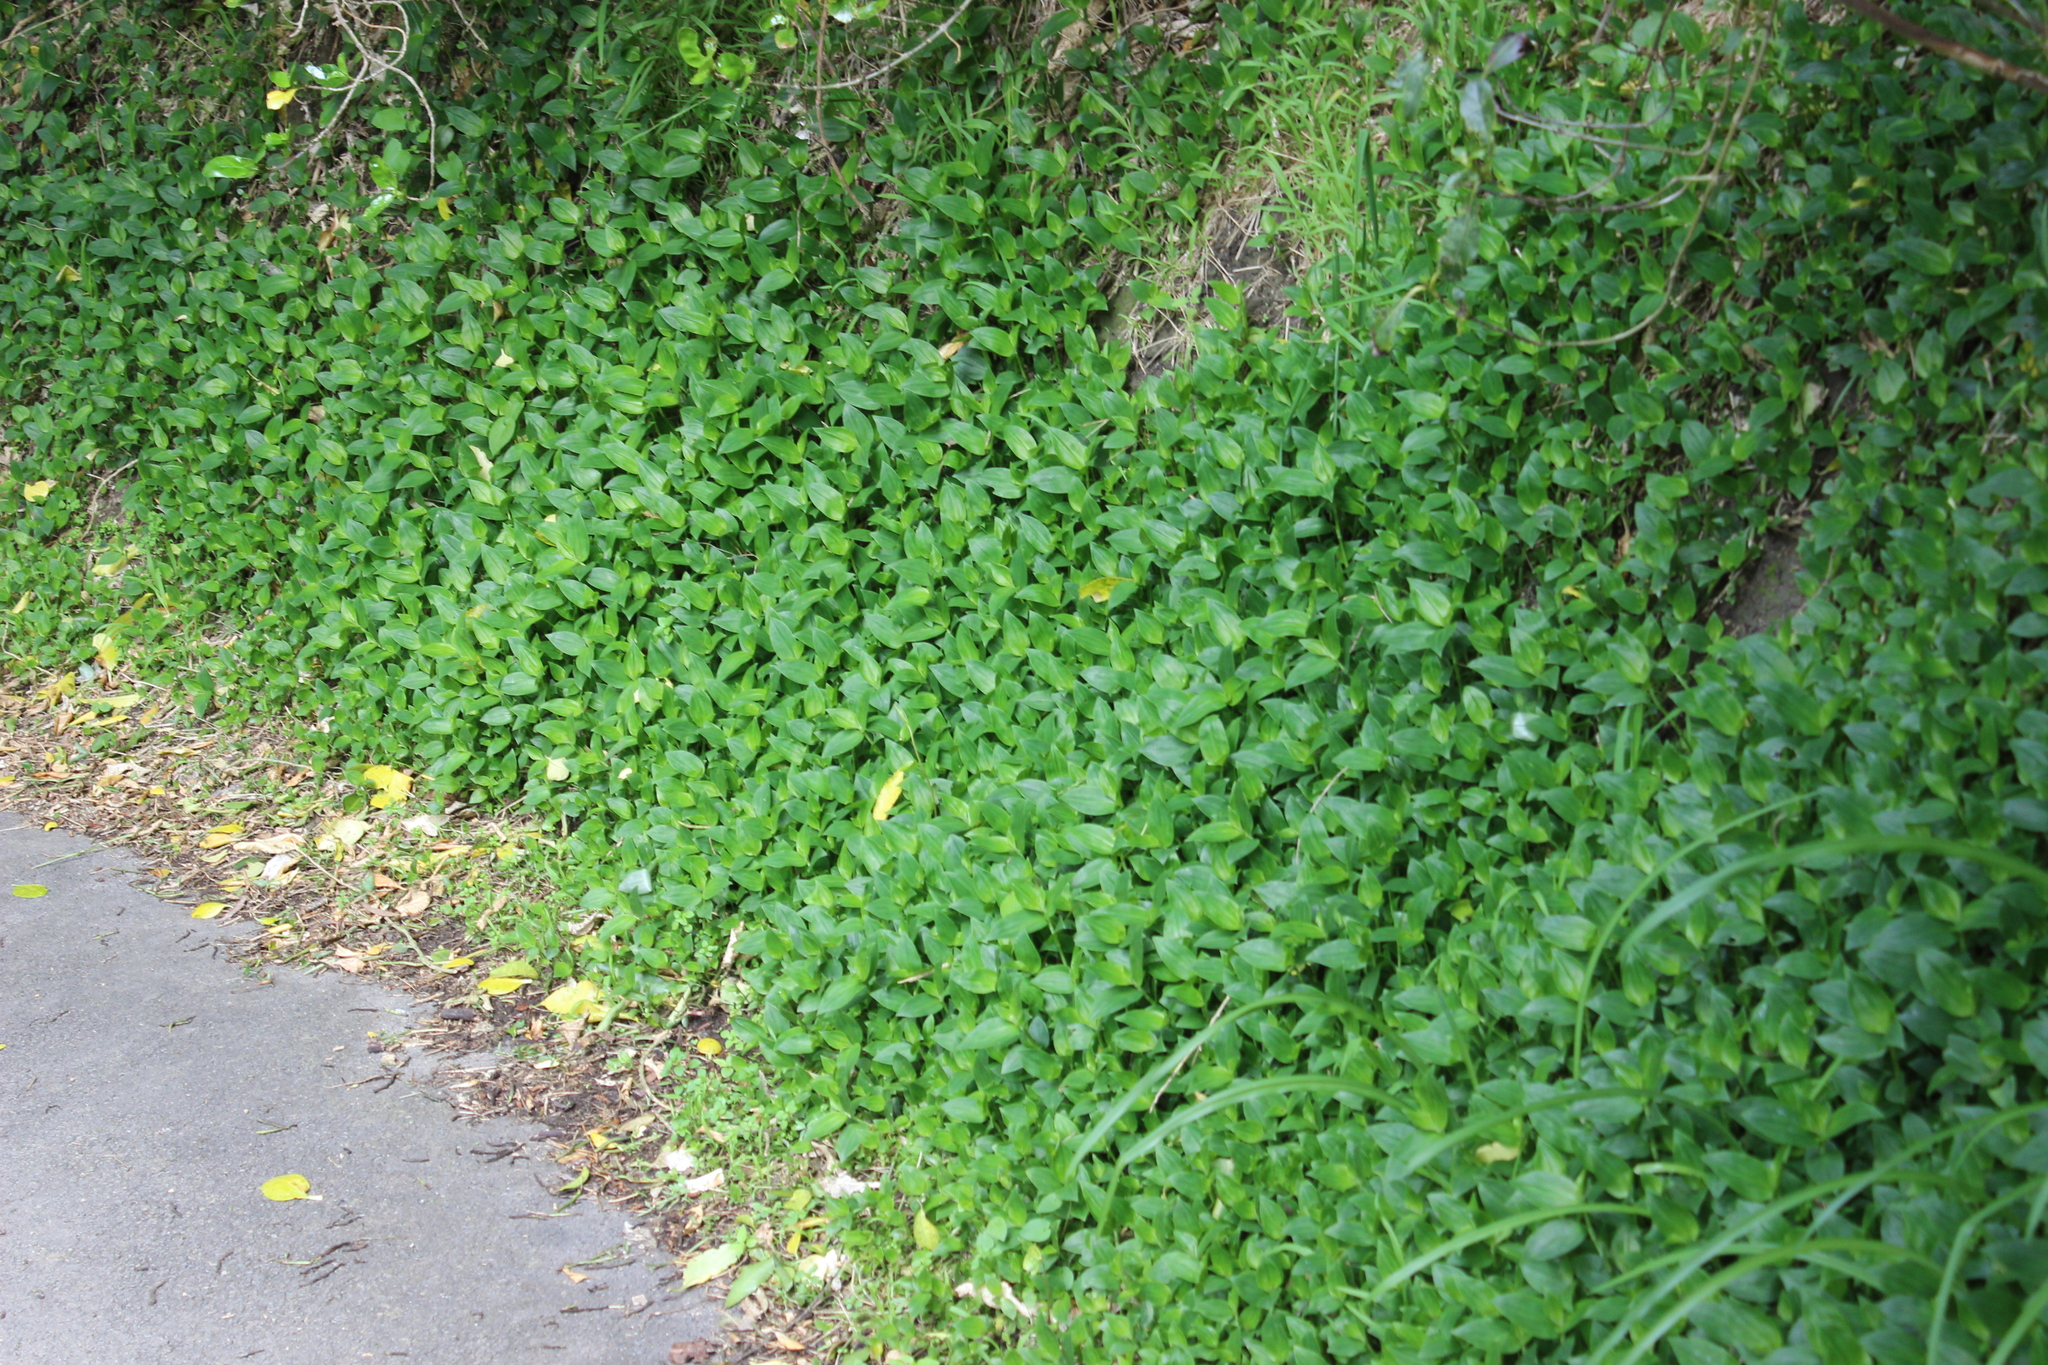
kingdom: Plantae
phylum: Tracheophyta
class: Liliopsida
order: Commelinales
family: Commelinaceae
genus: Tradescantia
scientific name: Tradescantia fluminensis
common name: Wandering-jew
